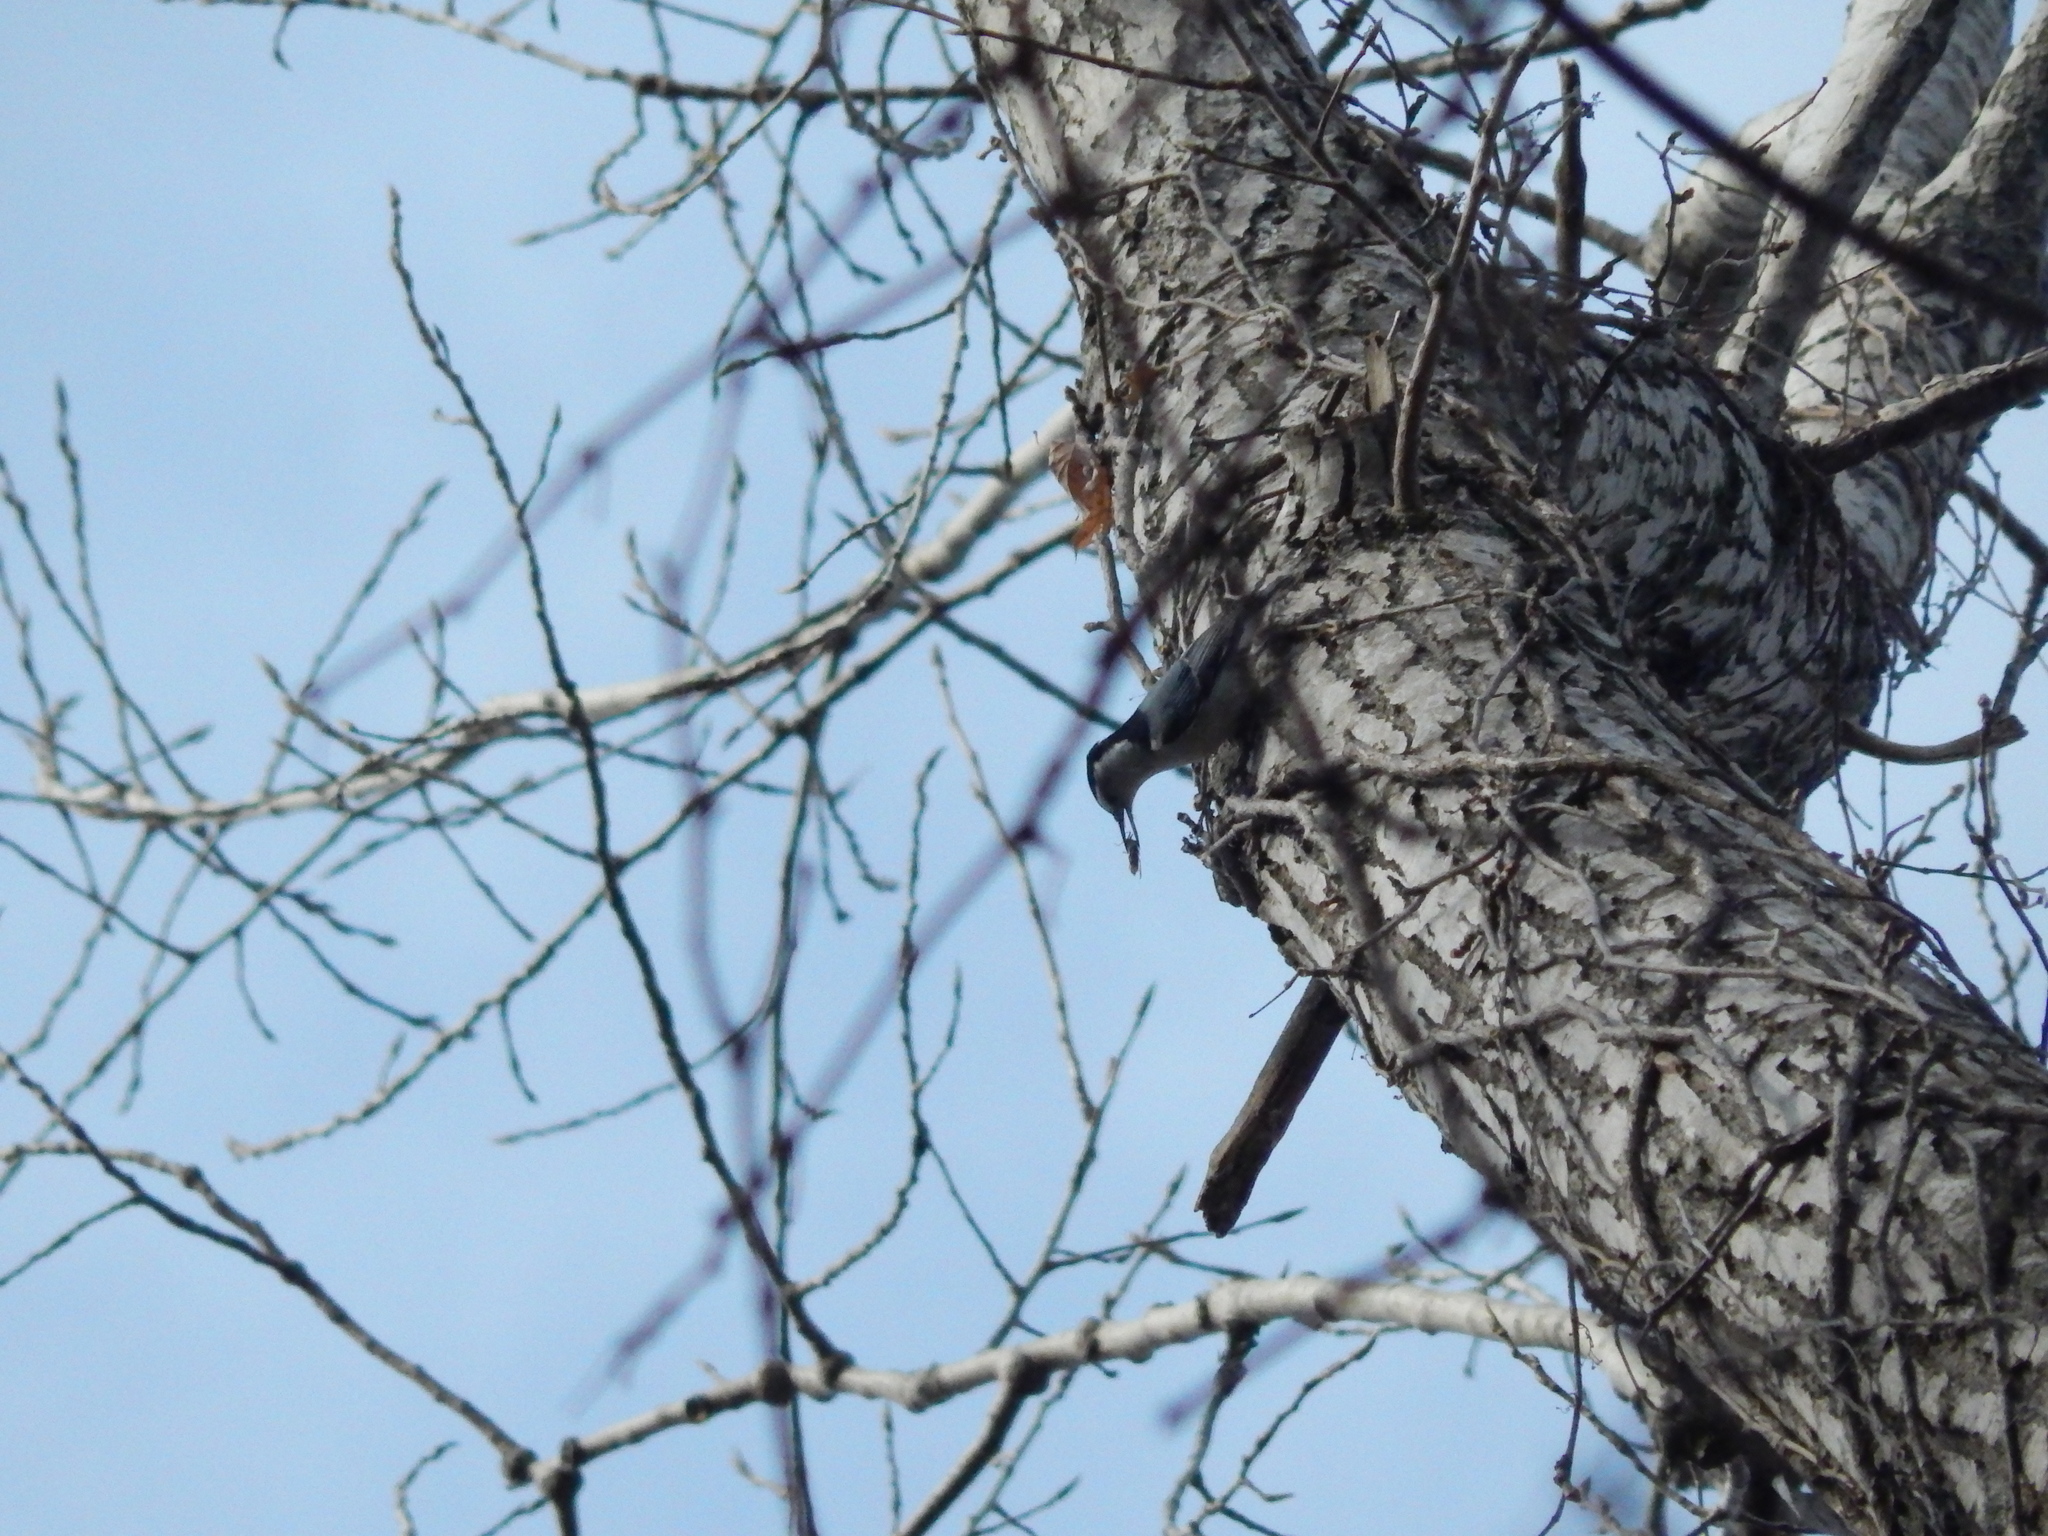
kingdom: Animalia
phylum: Chordata
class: Aves
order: Passeriformes
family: Sittidae
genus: Sitta
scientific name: Sitta carolinensis
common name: White-breasted nuthatch
